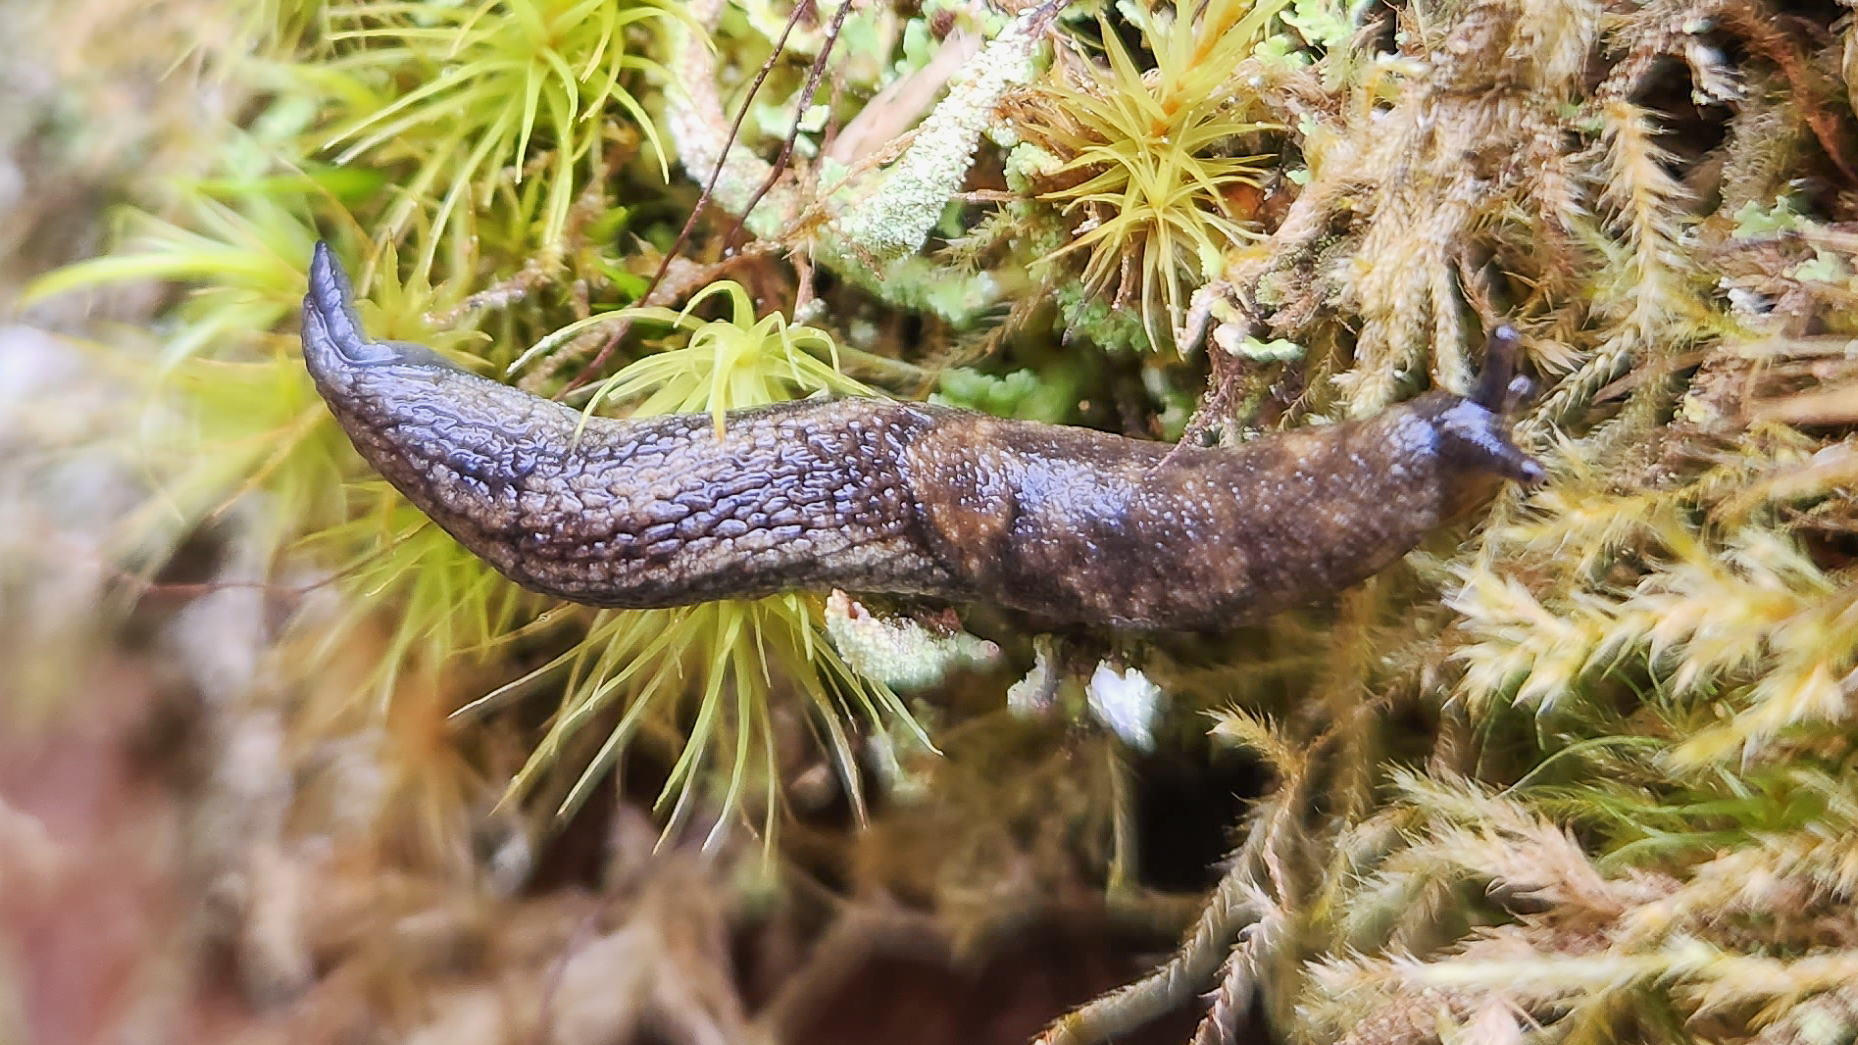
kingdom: Animalia
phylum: Mollusca
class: Gastropoda
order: Stylommatophora
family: Ariolimacidae
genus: Prophysaon
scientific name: Prophysaon vanattae
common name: Scarletback taildropper
